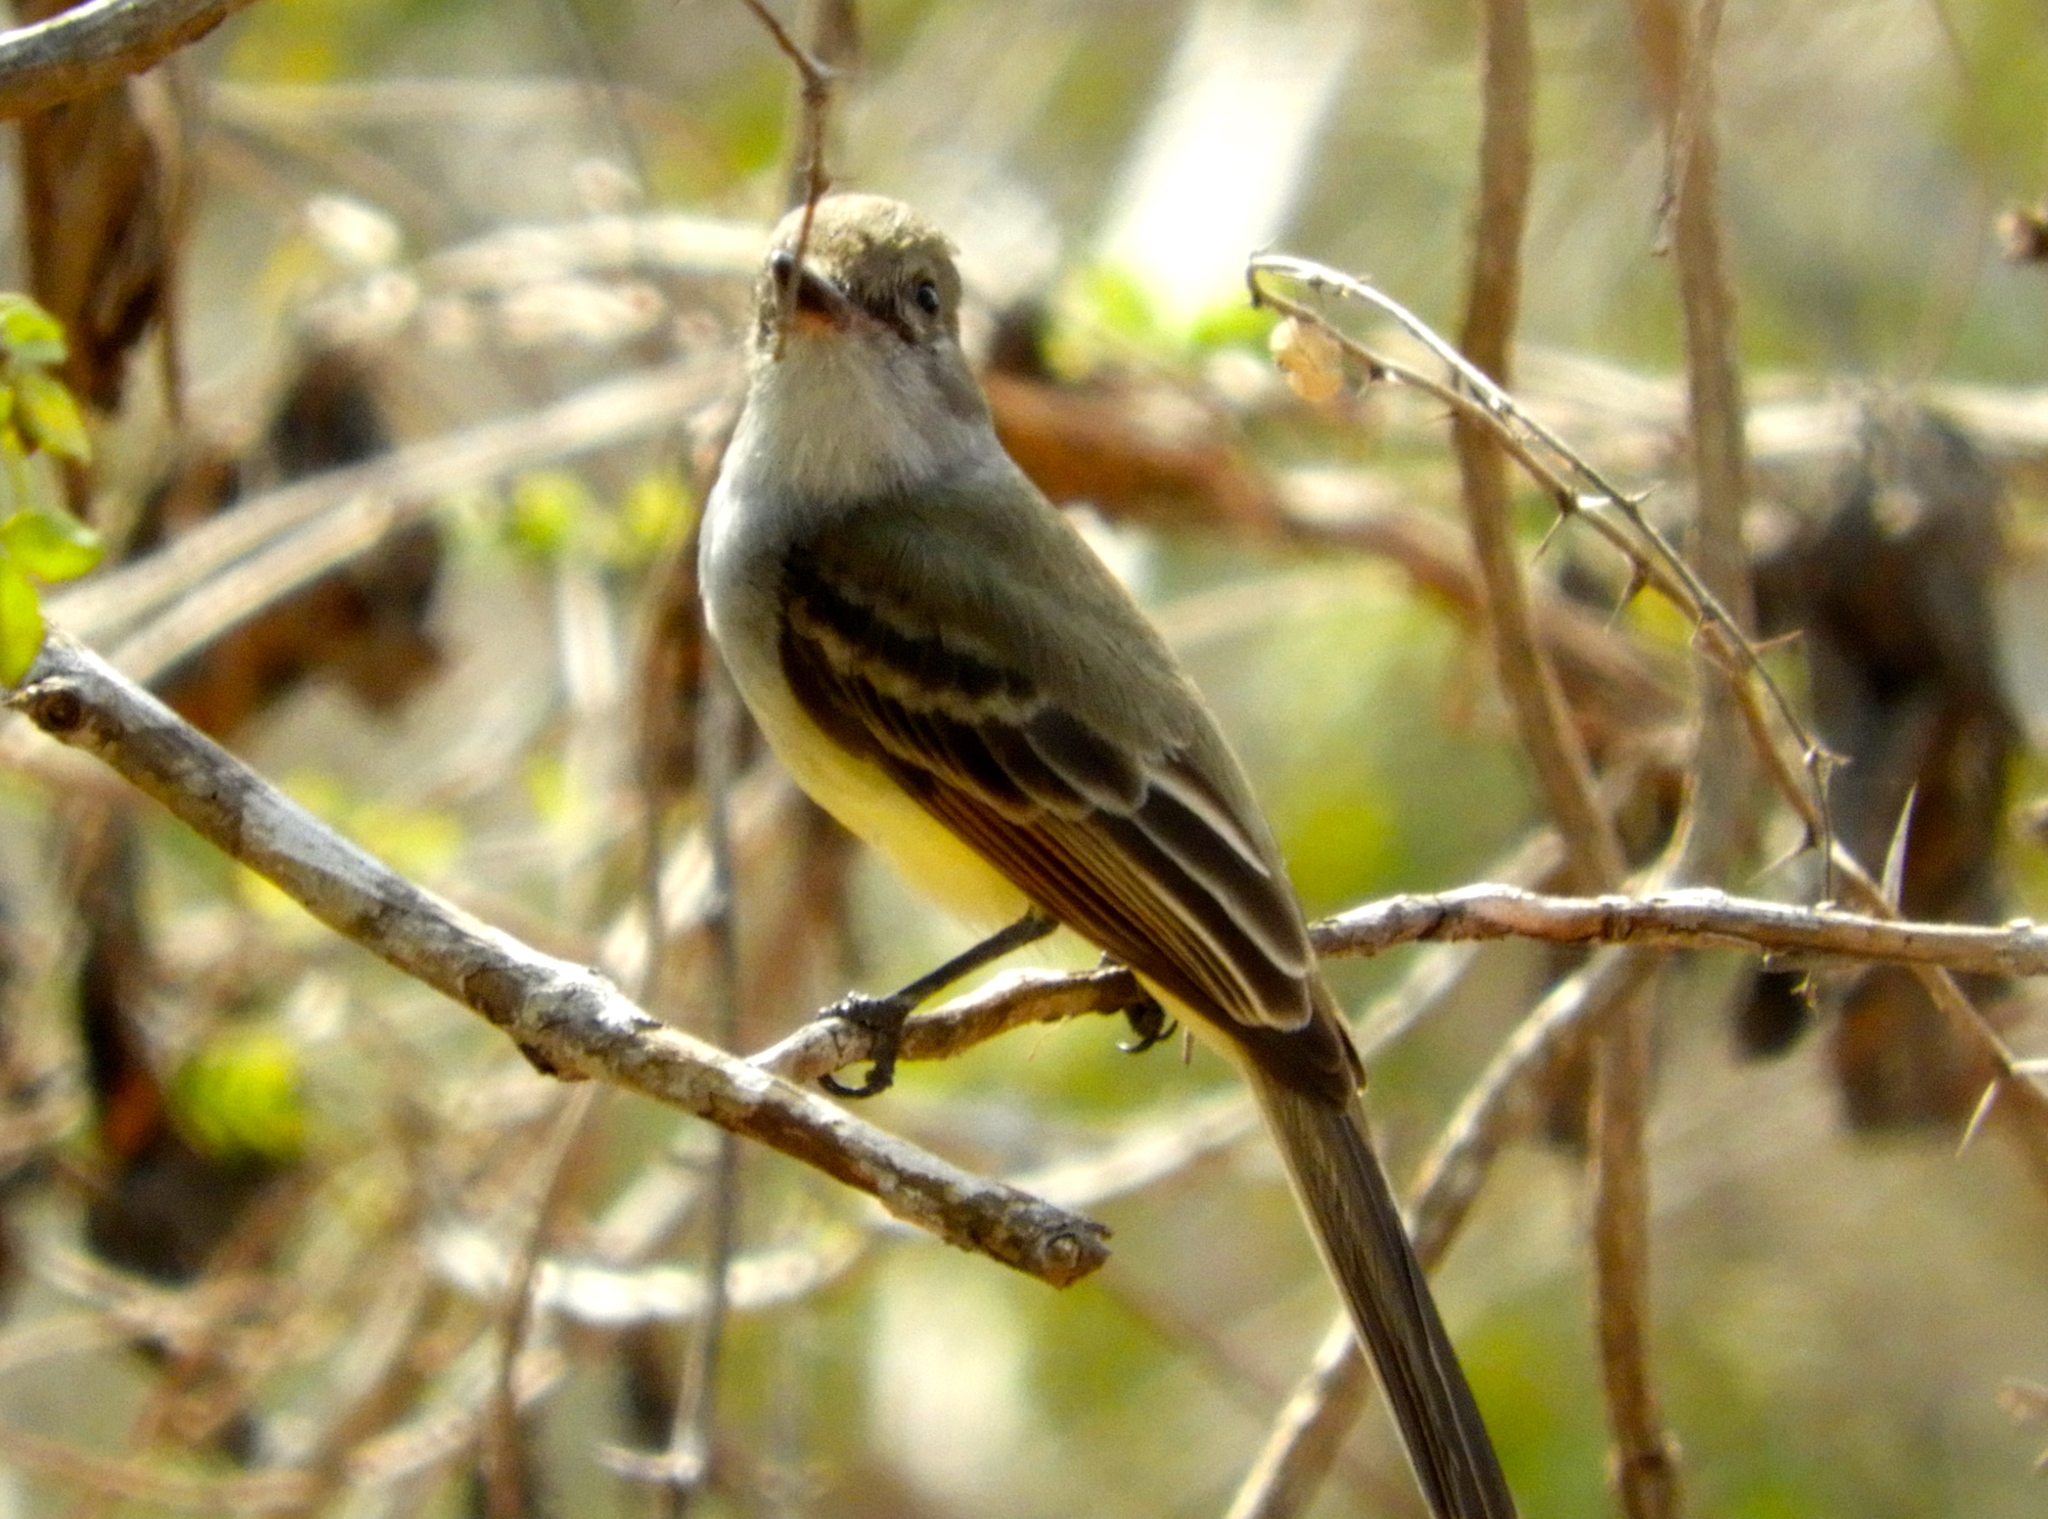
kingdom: Animalia
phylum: Chordata
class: Aves
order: Passeriformes
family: Tyrannidae
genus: Myiarchus
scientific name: Myiarchus nuttingi
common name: Nutting's flycatcher
